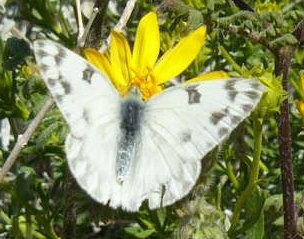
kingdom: Animalia
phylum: Arthropoda
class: Insecta
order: Lepidoptera
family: Pieridae
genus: Pontia
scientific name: Pontia protodice
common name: Checkered white
